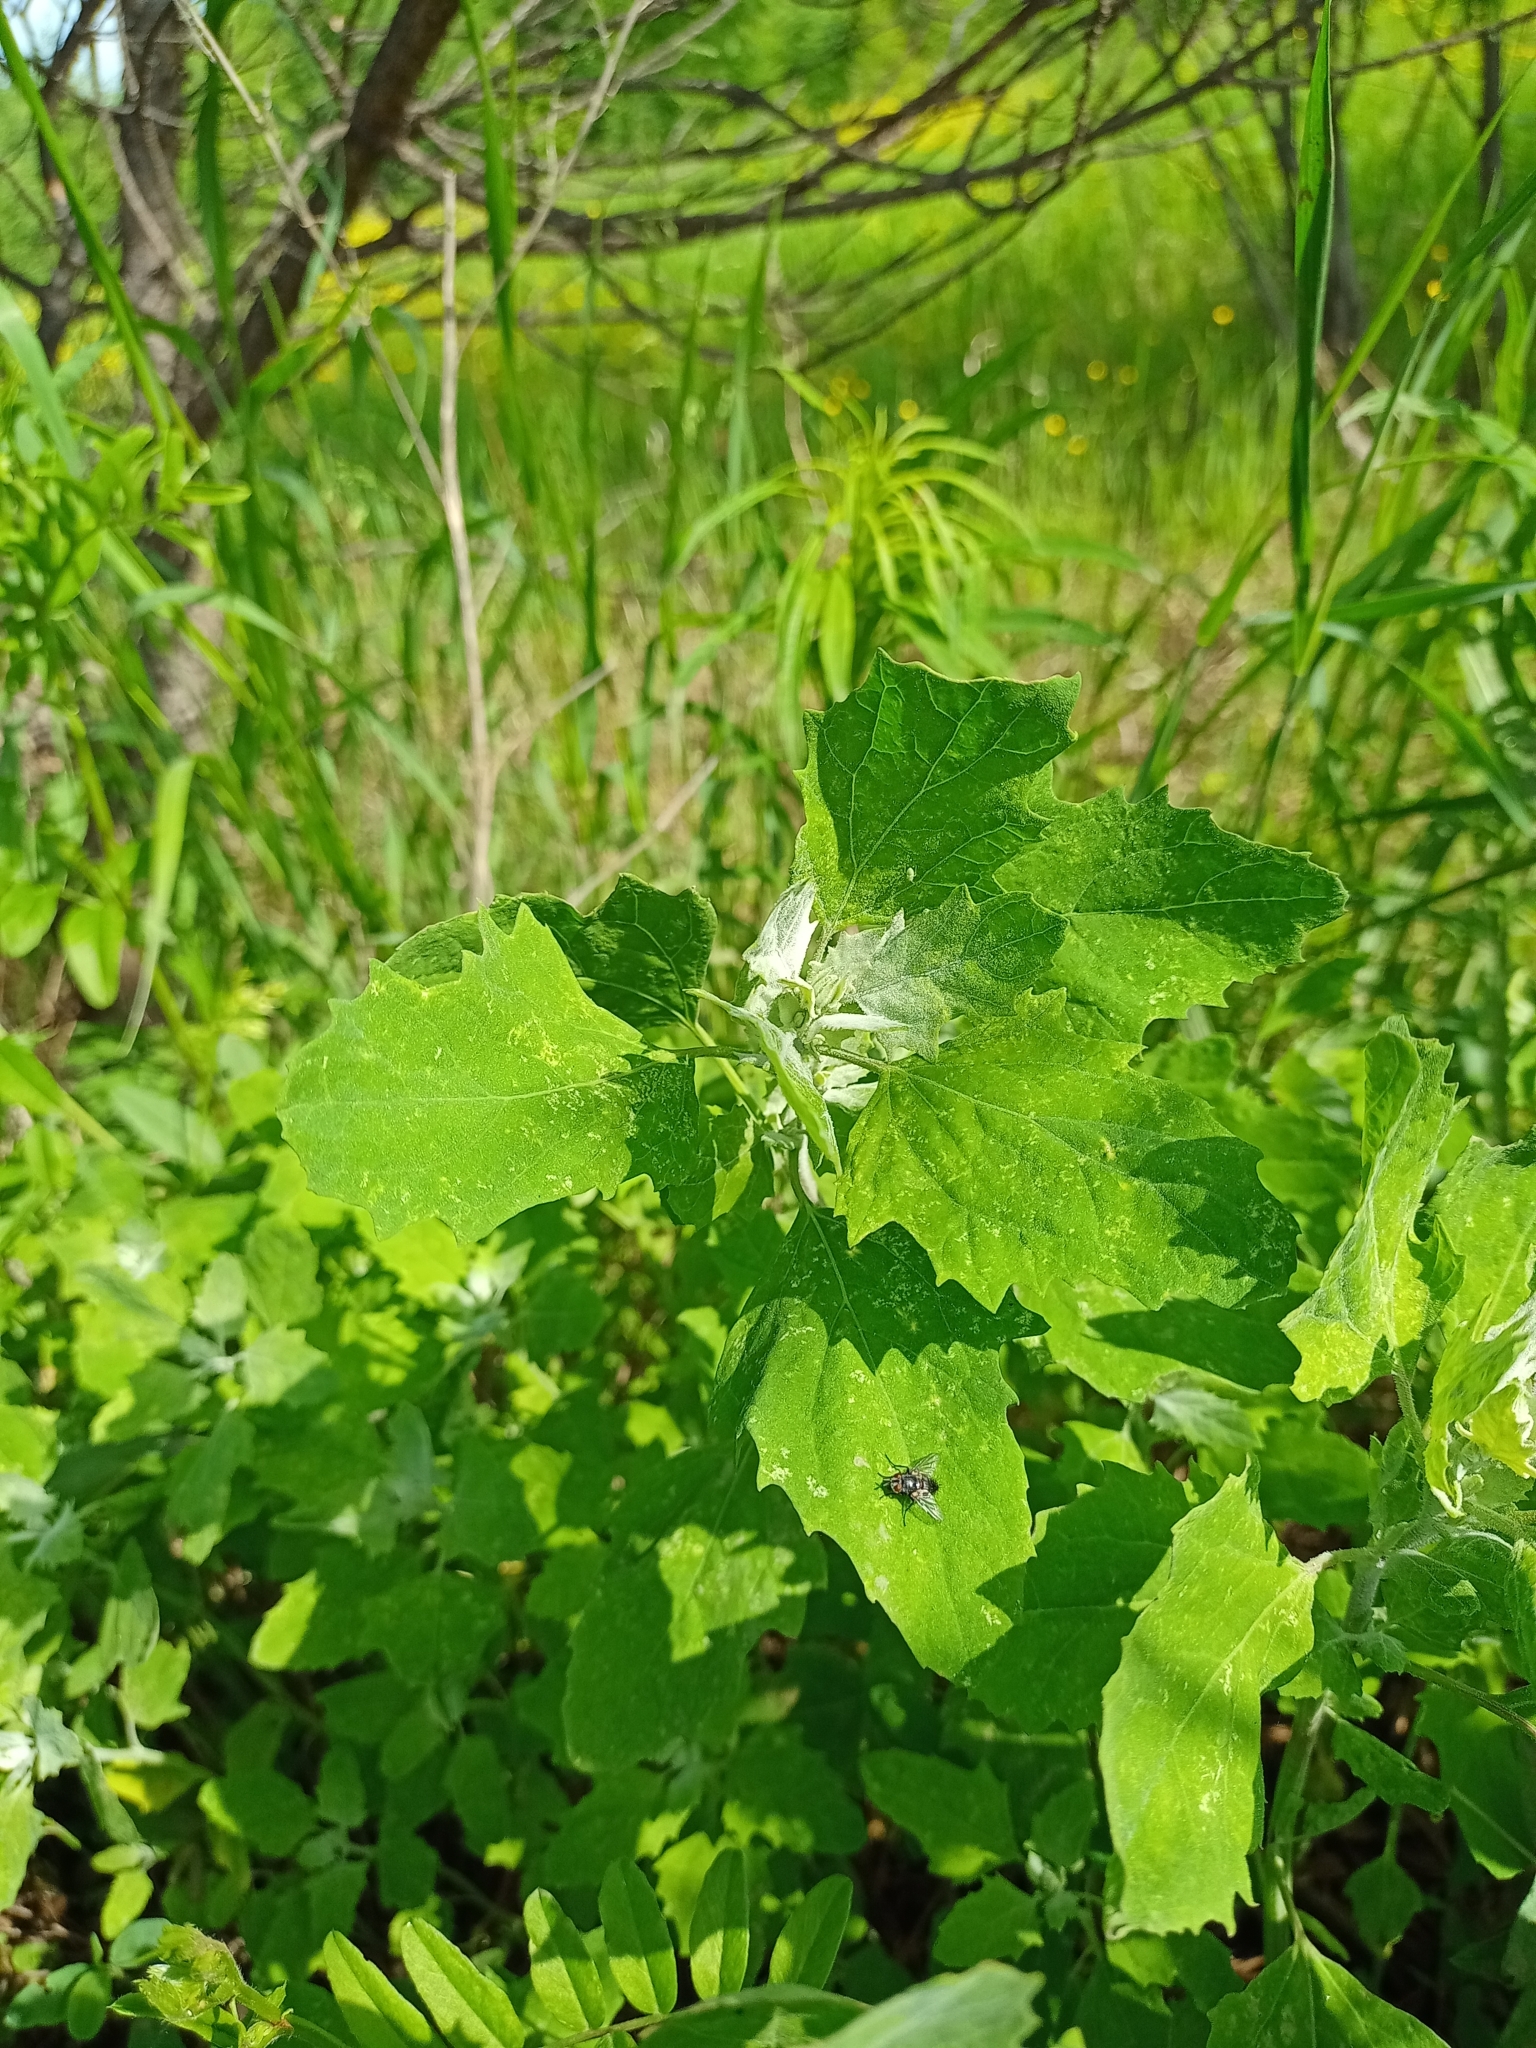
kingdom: Plantae
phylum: Tracheophyta
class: Magnoliopsida
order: Caryophyllales
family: Amaranthaceae
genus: Chenopodium
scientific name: Chenopodium album
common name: Fat-hen
